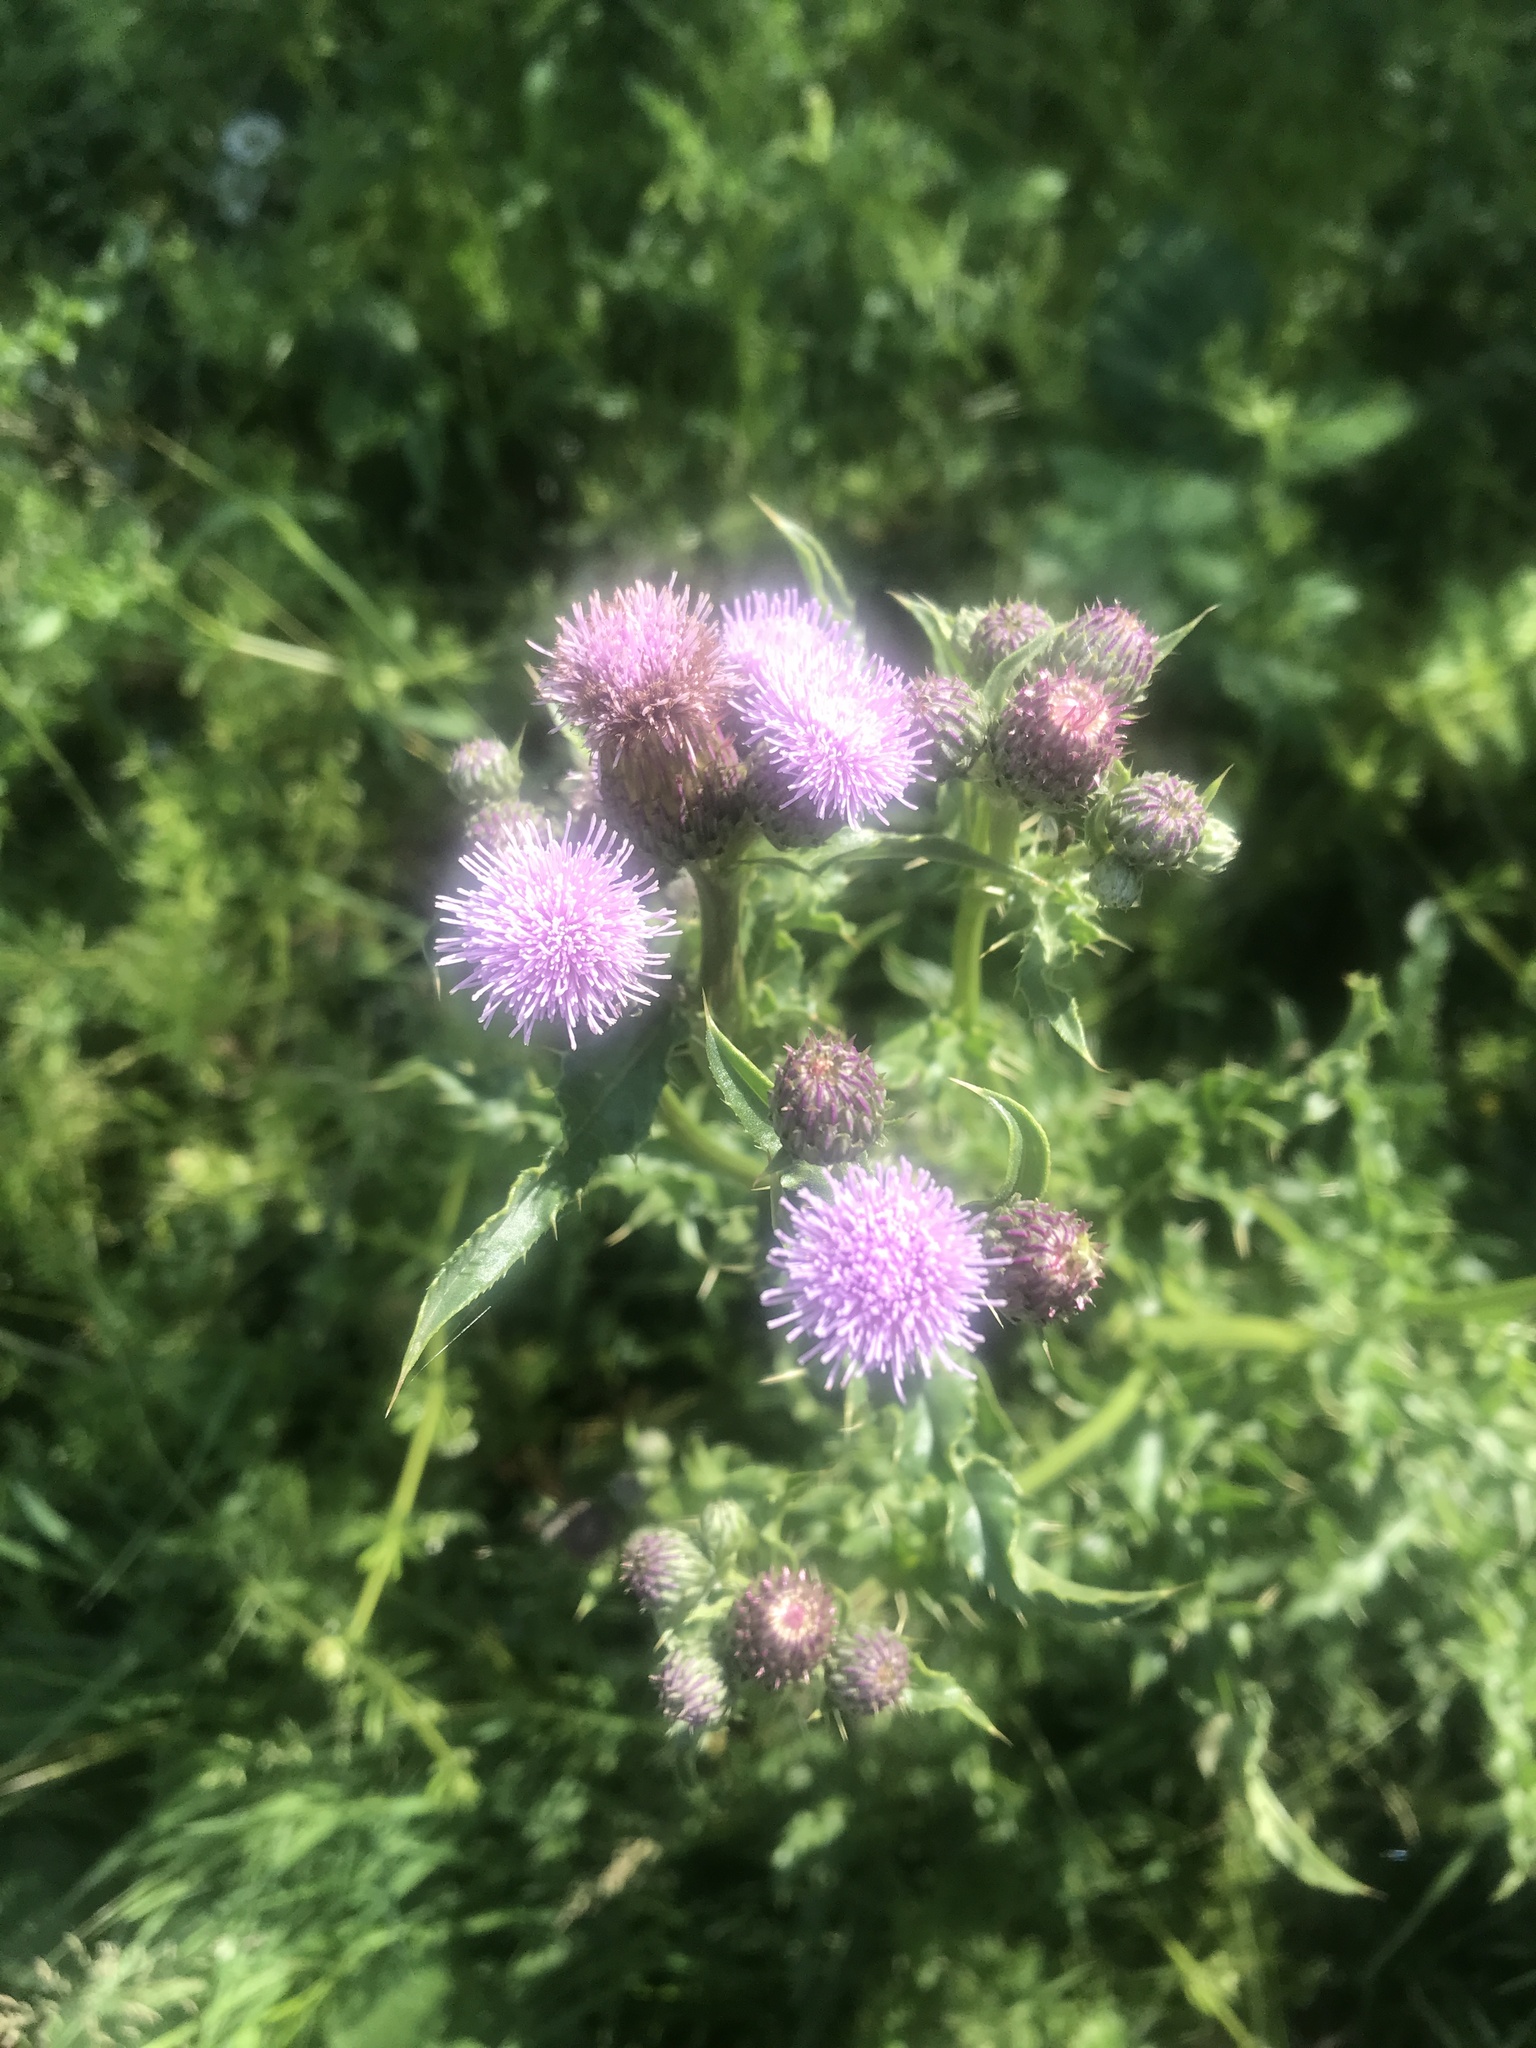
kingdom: Plantae
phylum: Tracheophyta
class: Magnoliopsida
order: Asterales
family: Asteraceae
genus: Cirsium
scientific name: Cirsium arvense
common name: Creeping thistle
